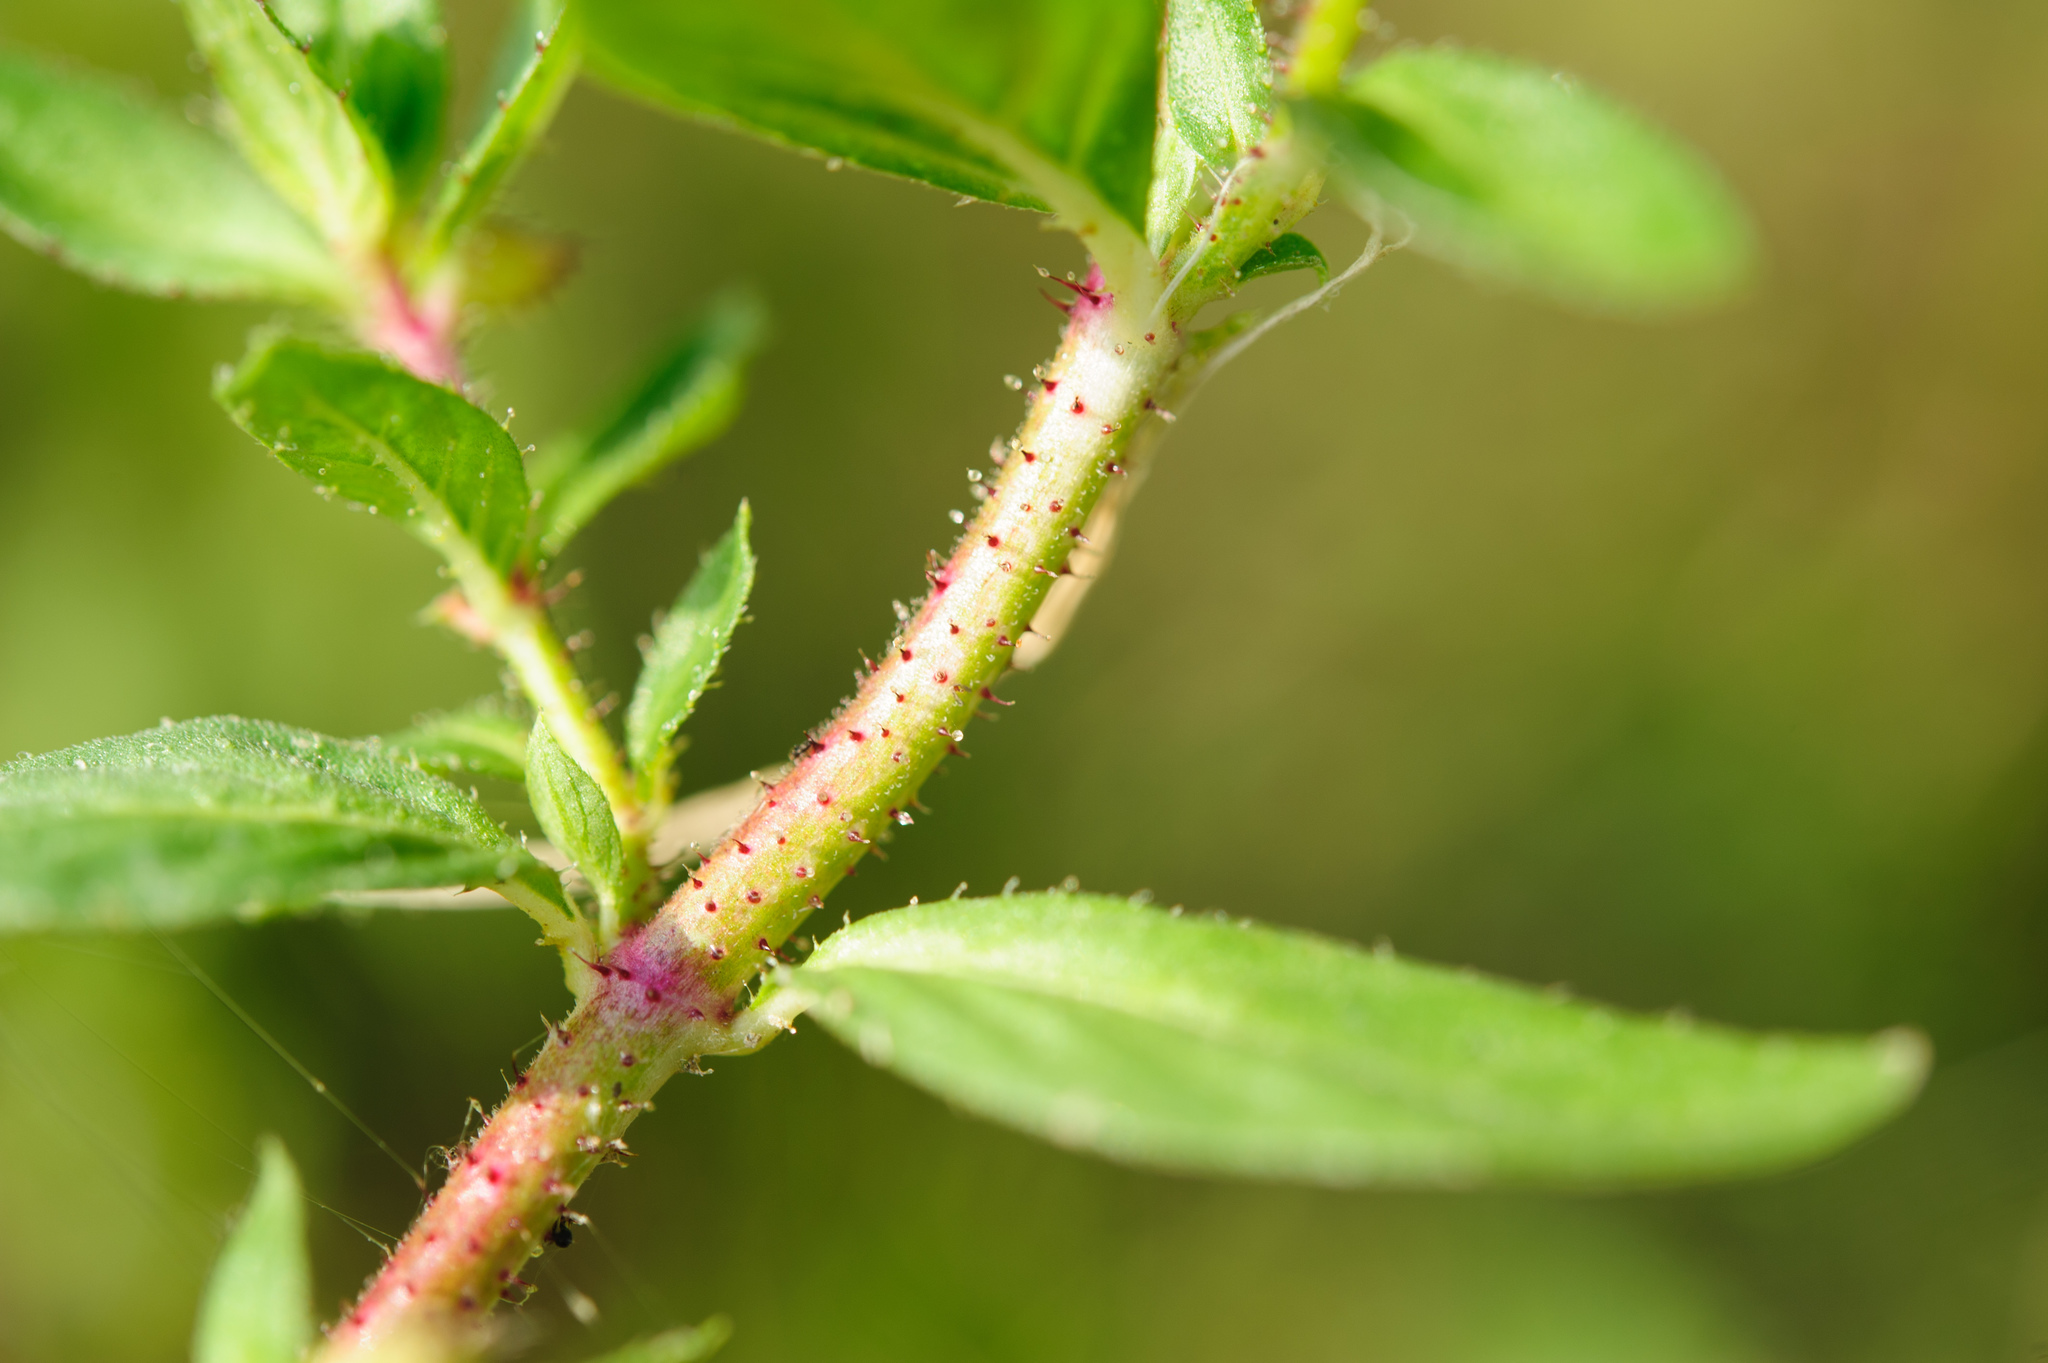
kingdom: Plantae
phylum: Tracheophyta
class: Magnoliopsida
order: Myrtales
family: Lythraceae
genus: Cuphea
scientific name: Cuphea carthagenensis
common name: Colombian waxweed
